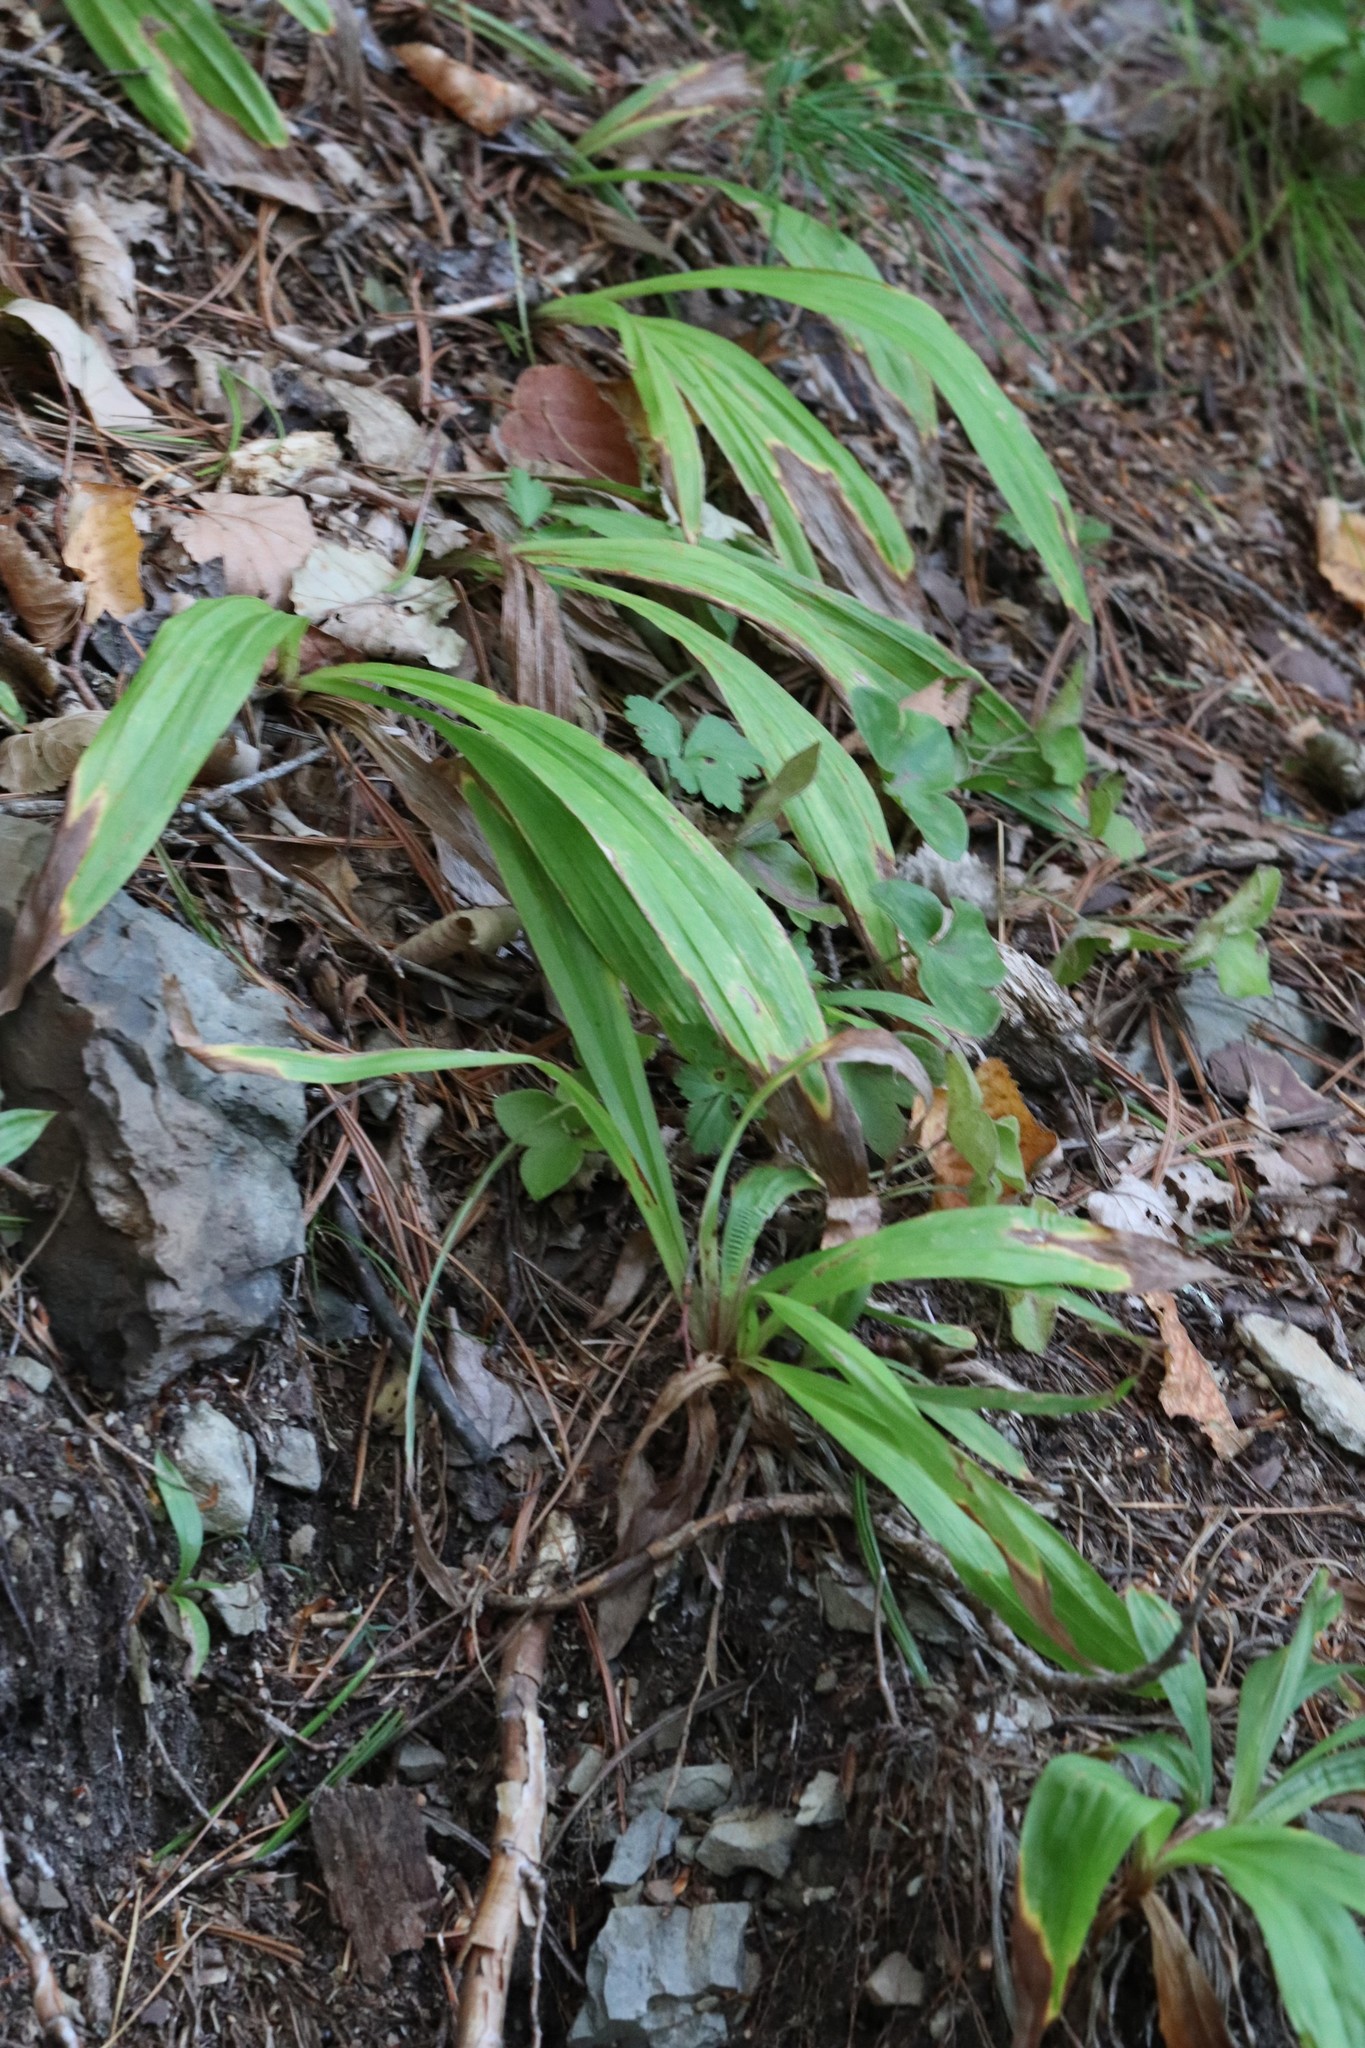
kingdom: Plantae
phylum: Tracheophyta
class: Liliopsida
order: Poales
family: Cyperaceae
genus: Carex
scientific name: Carex siderosticta
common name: Broadleaf sedge
